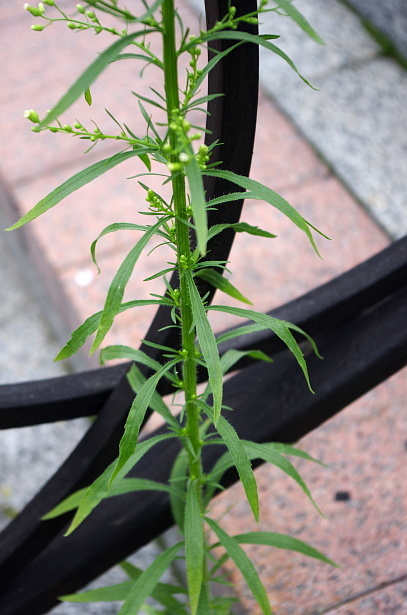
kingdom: Plantae
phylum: Tracheophyta
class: Magnoliopsida
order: Asterales
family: Asteraceae
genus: Erigeron
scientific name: Erigeron canadensis
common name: Canadian fleabane
